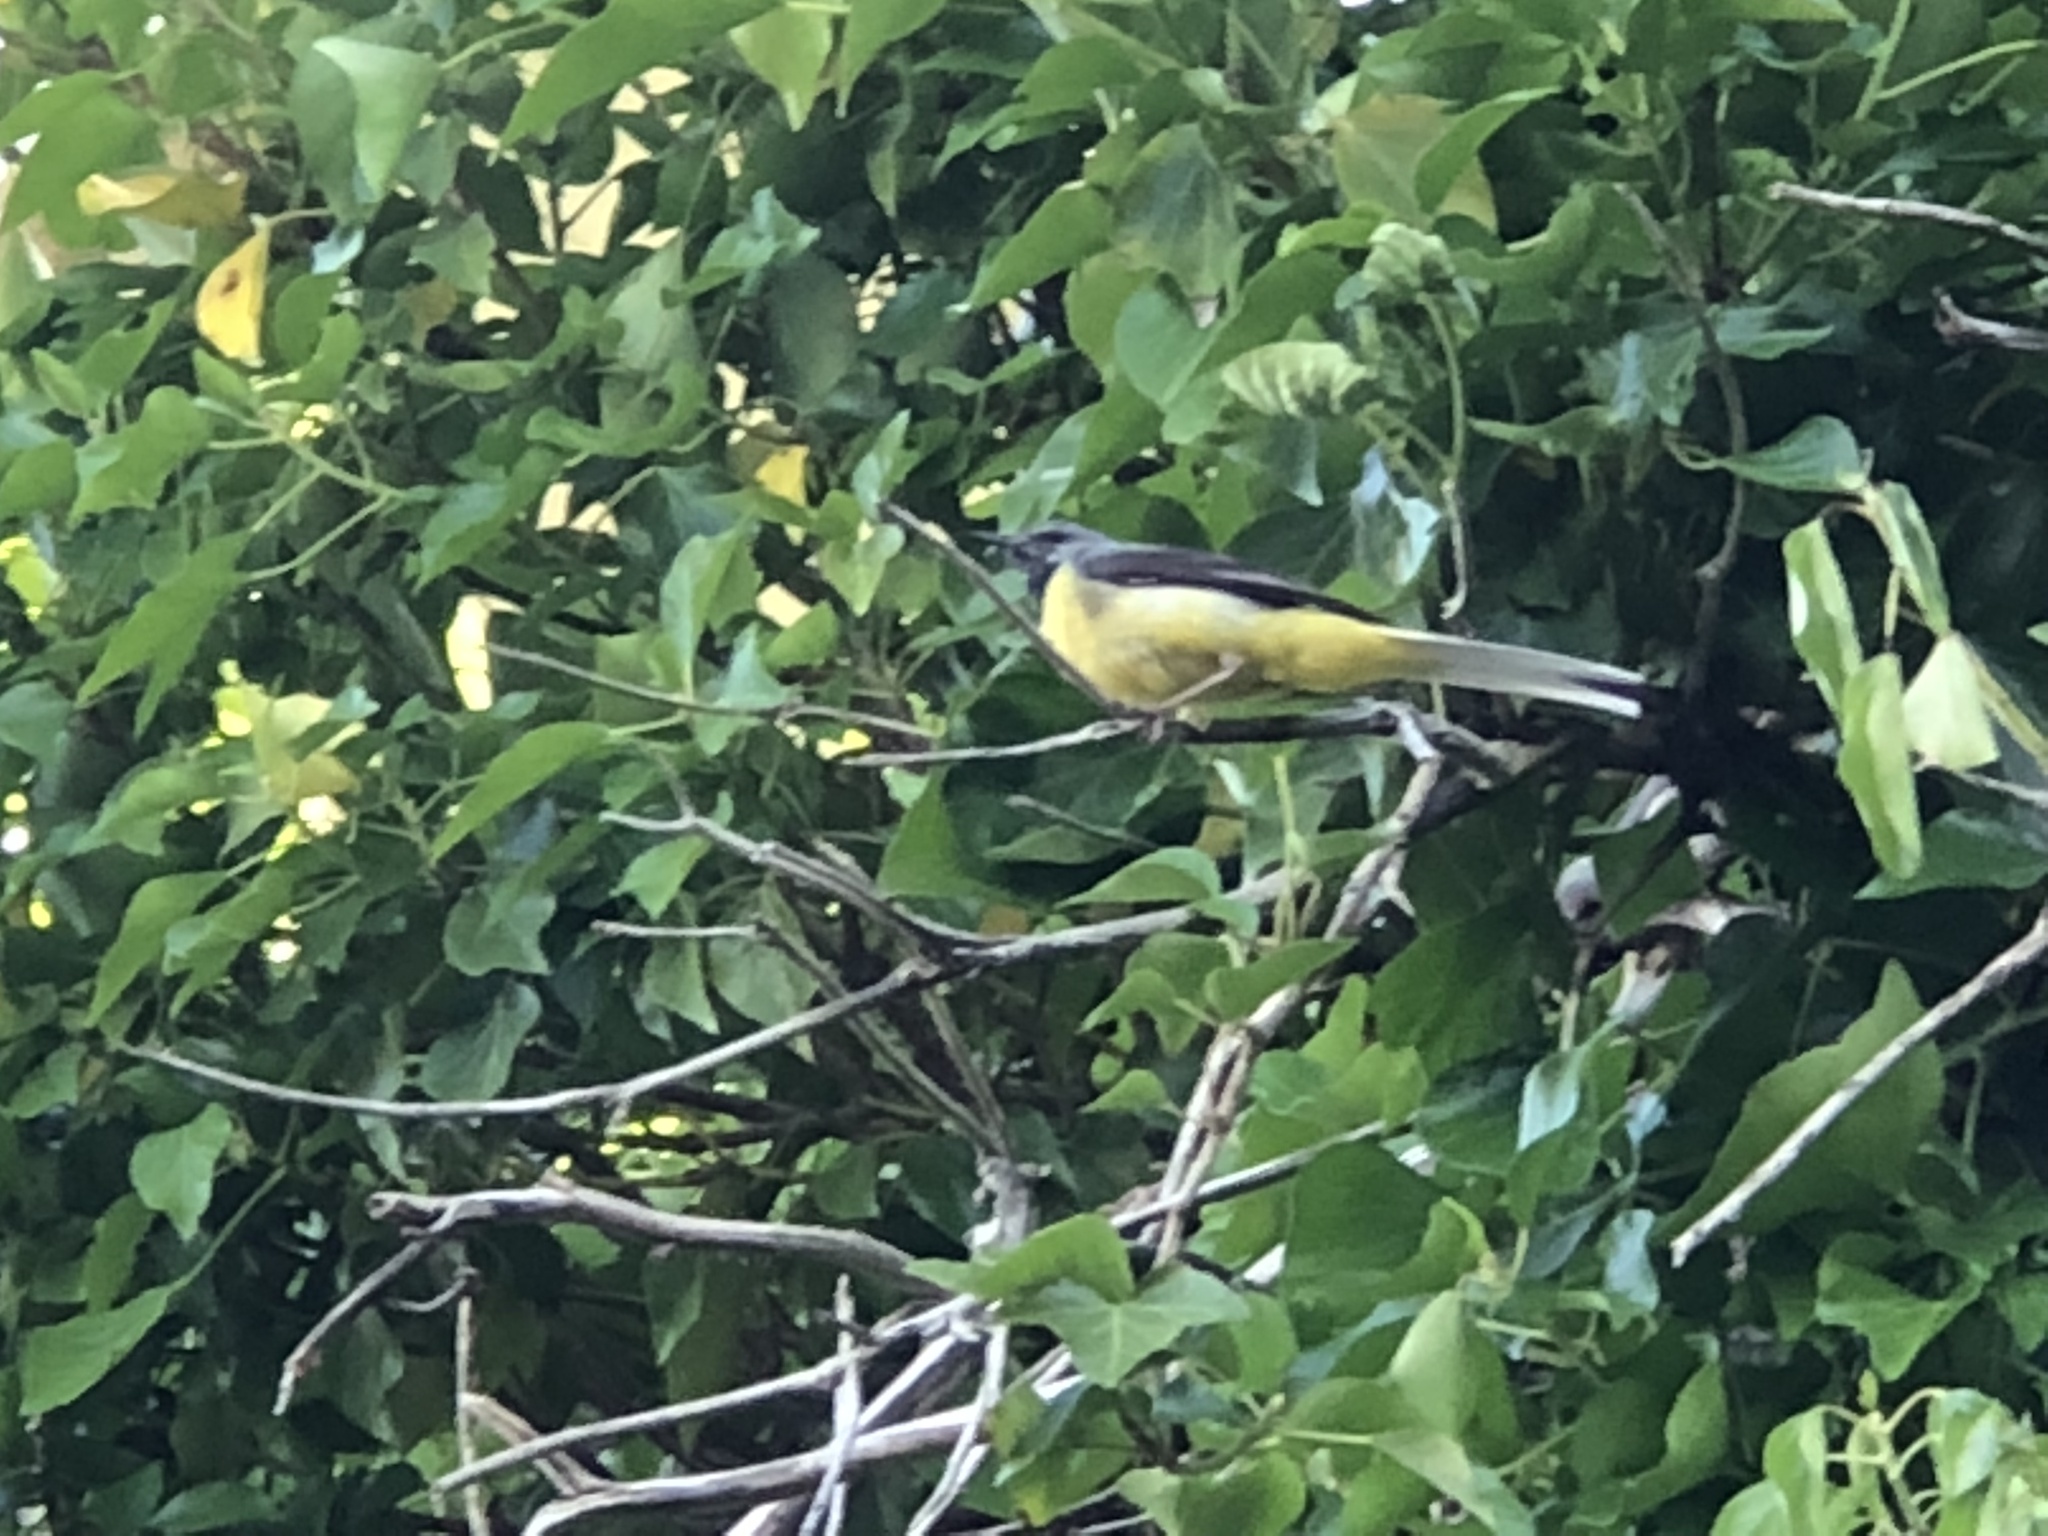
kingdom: Animalia
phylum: Chordata
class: Aves
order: Passeriformes
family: Motacillidae
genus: Motacilla
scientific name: Motacilla cinerea
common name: Grey wagtail
